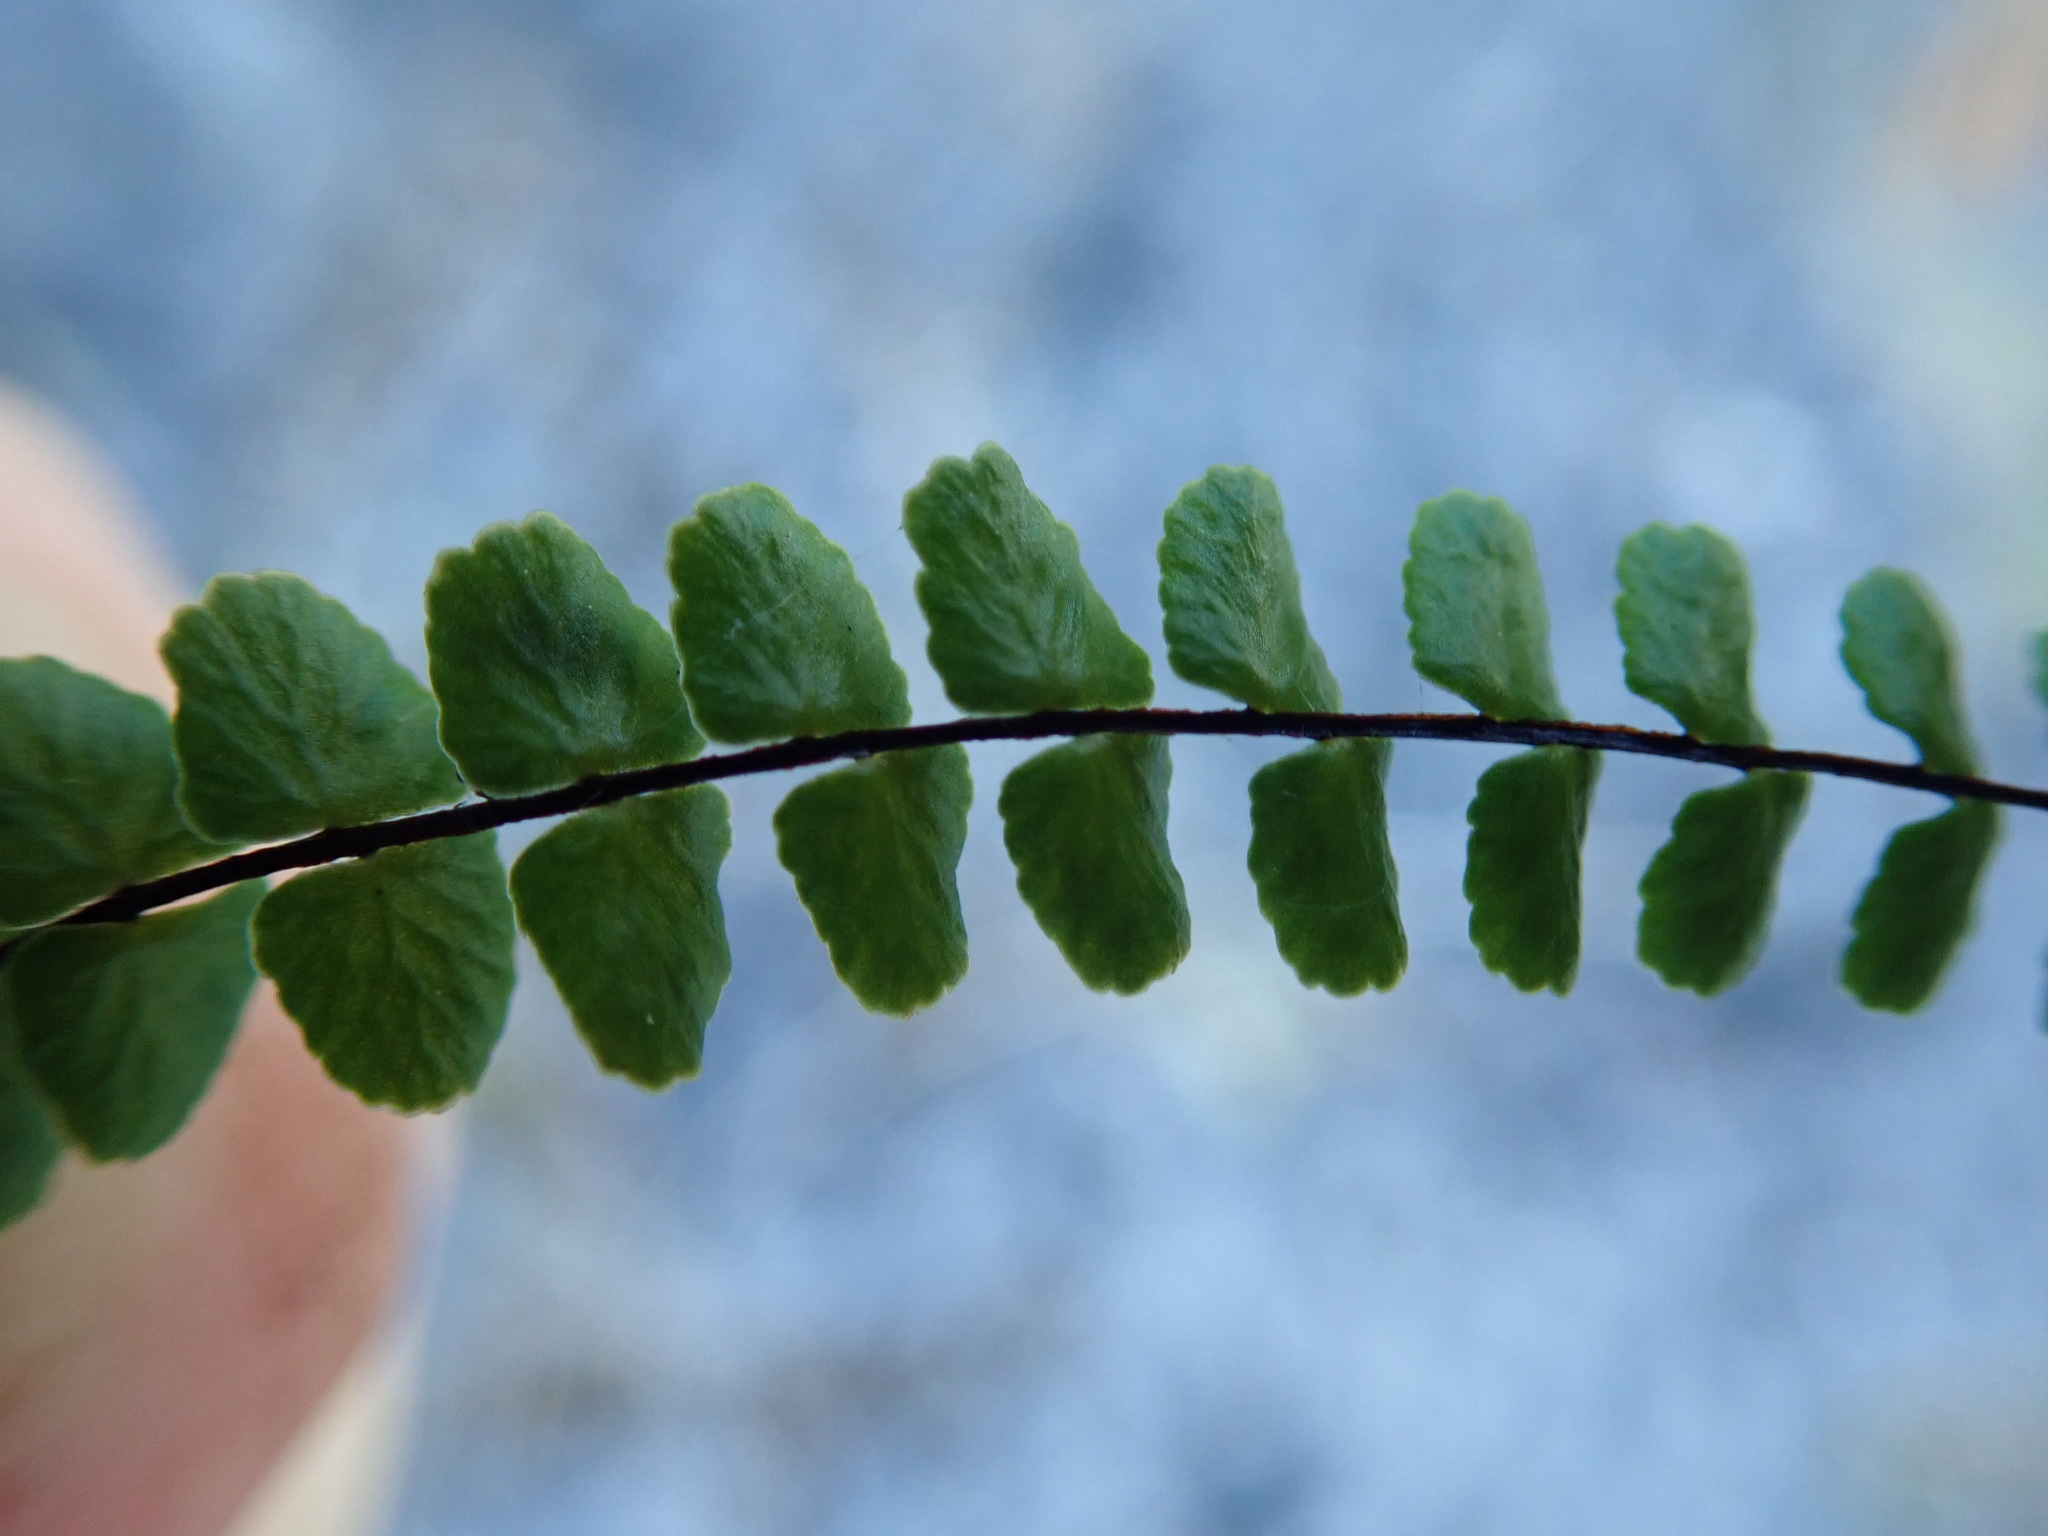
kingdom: Plantae
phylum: Tracheophyta
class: Polypodiopsida
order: Polypodiales
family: Aspleniaceae
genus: Asplenium
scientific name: Asplenium trichomanes
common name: Maidenhair spleenwort
